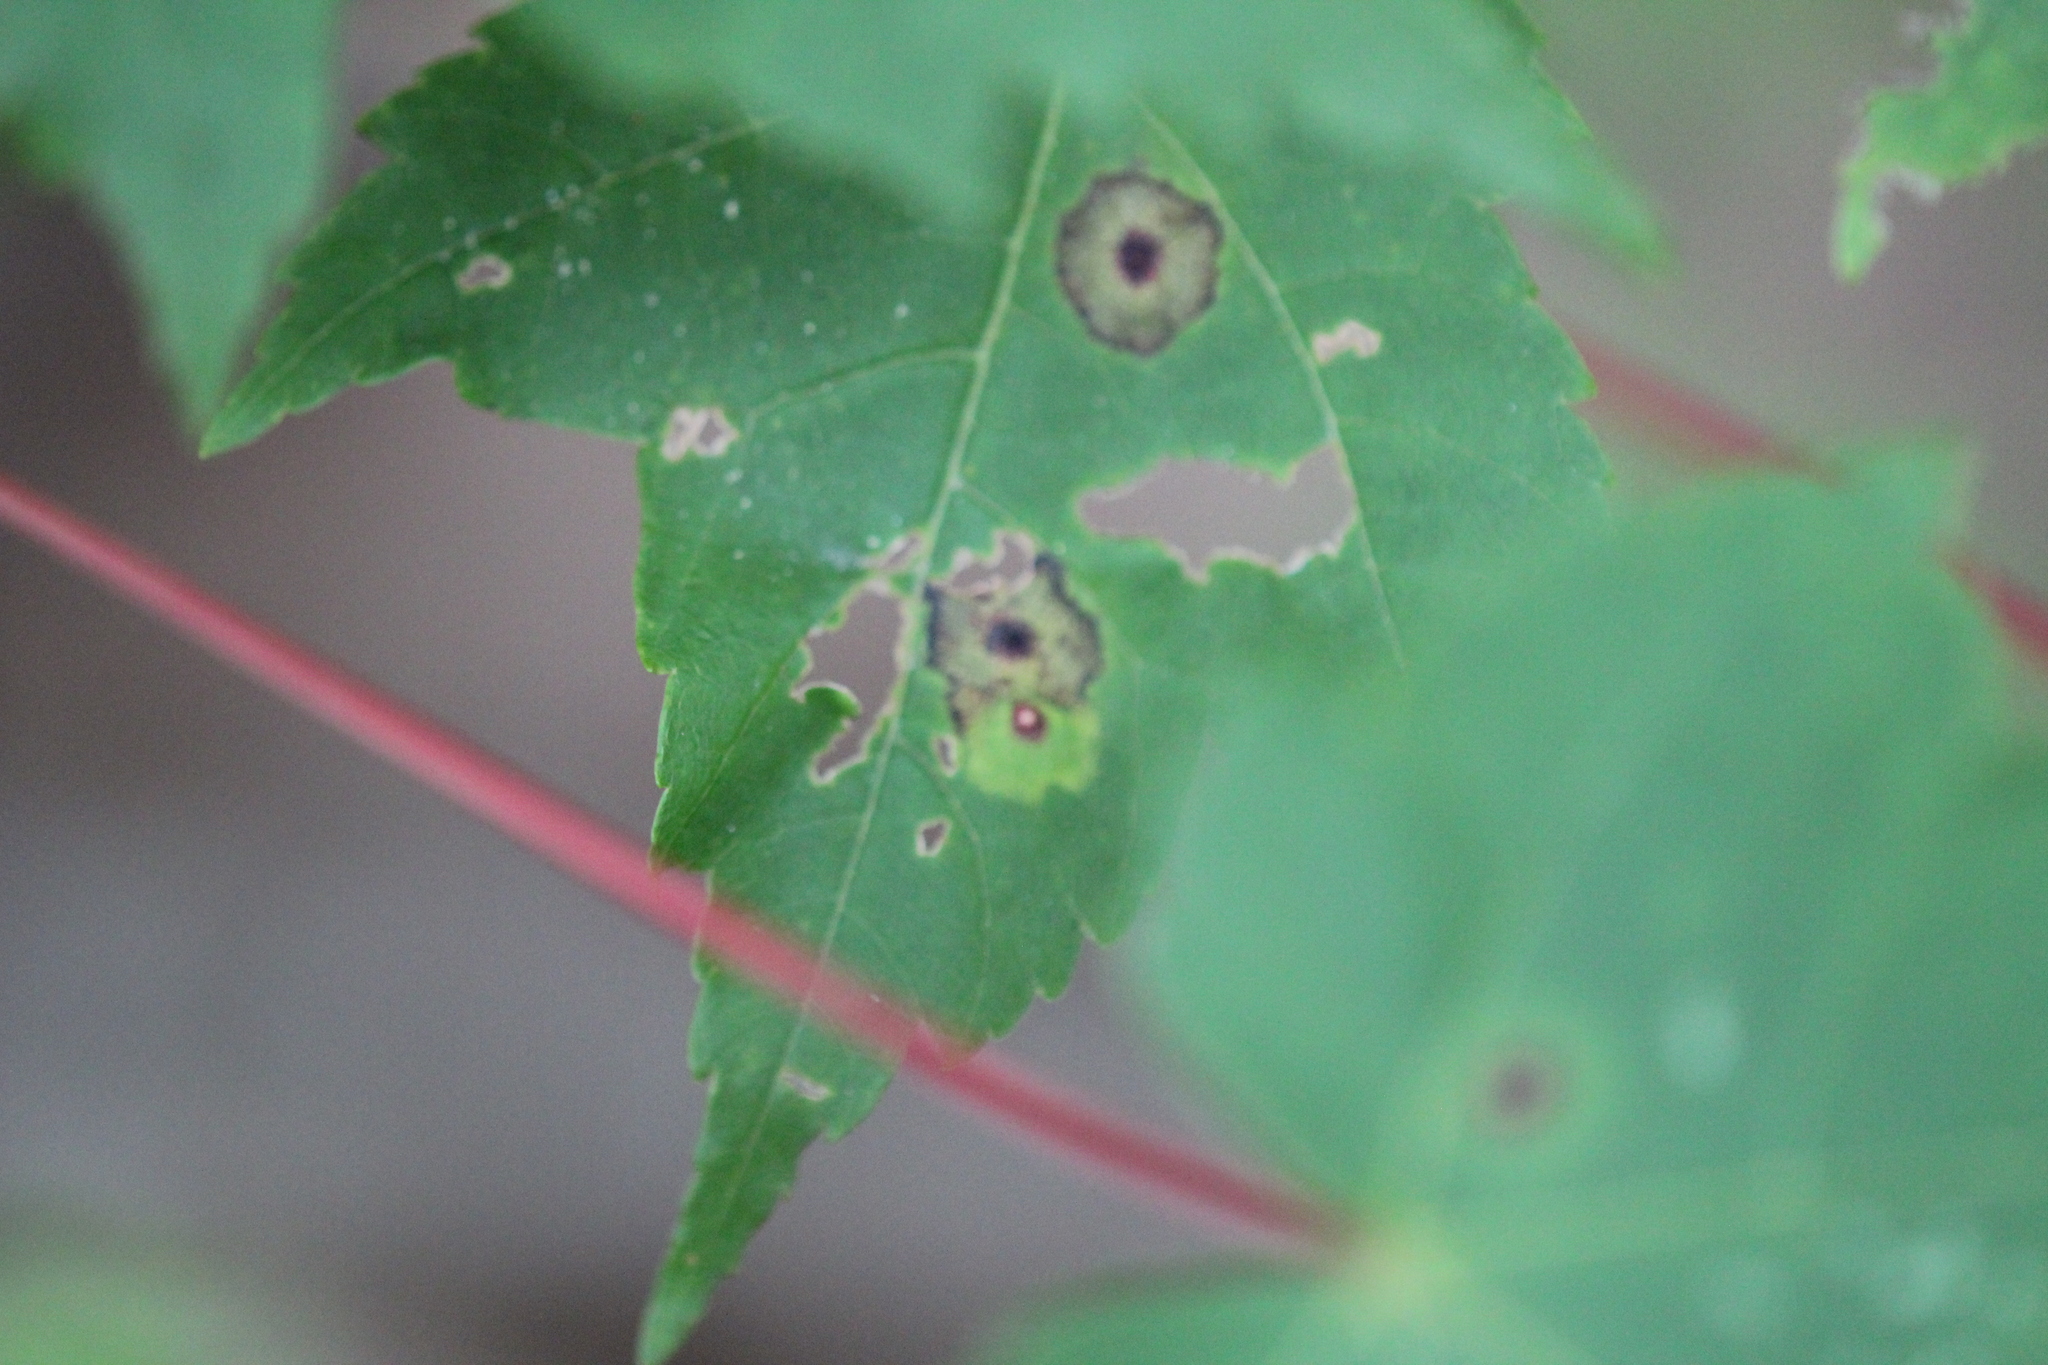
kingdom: Animalia
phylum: Arthropoda
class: Insecta
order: Diptera
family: Cecidomyiidae
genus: Acericecis
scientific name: Acericecis ocellaris
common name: Ocellate gall midge
